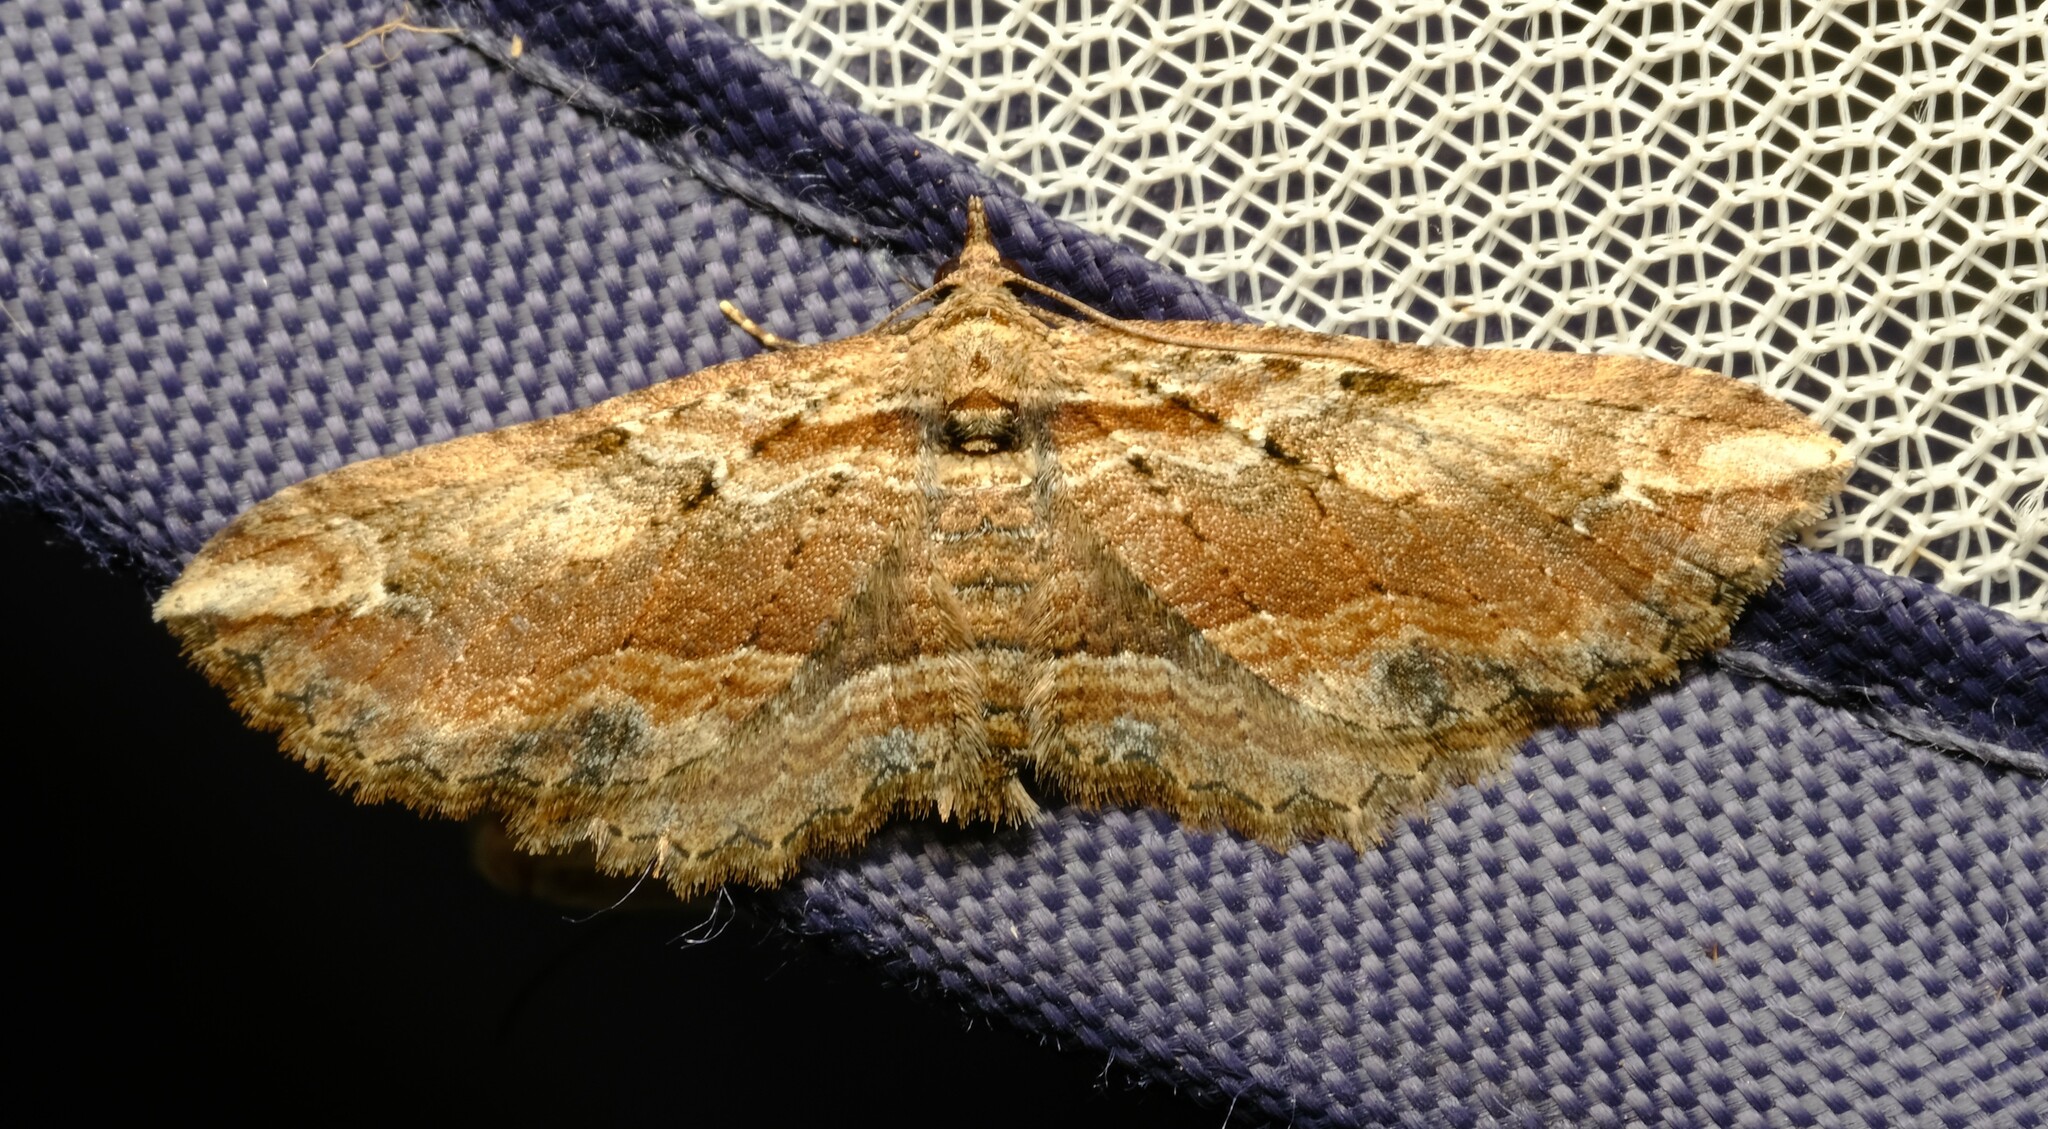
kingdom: Animalia
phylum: Arthropoda
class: Insecta
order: Lepidoptera
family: Geometridae
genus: Chrysolarentia
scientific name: Chrysolarentia leucophanes
